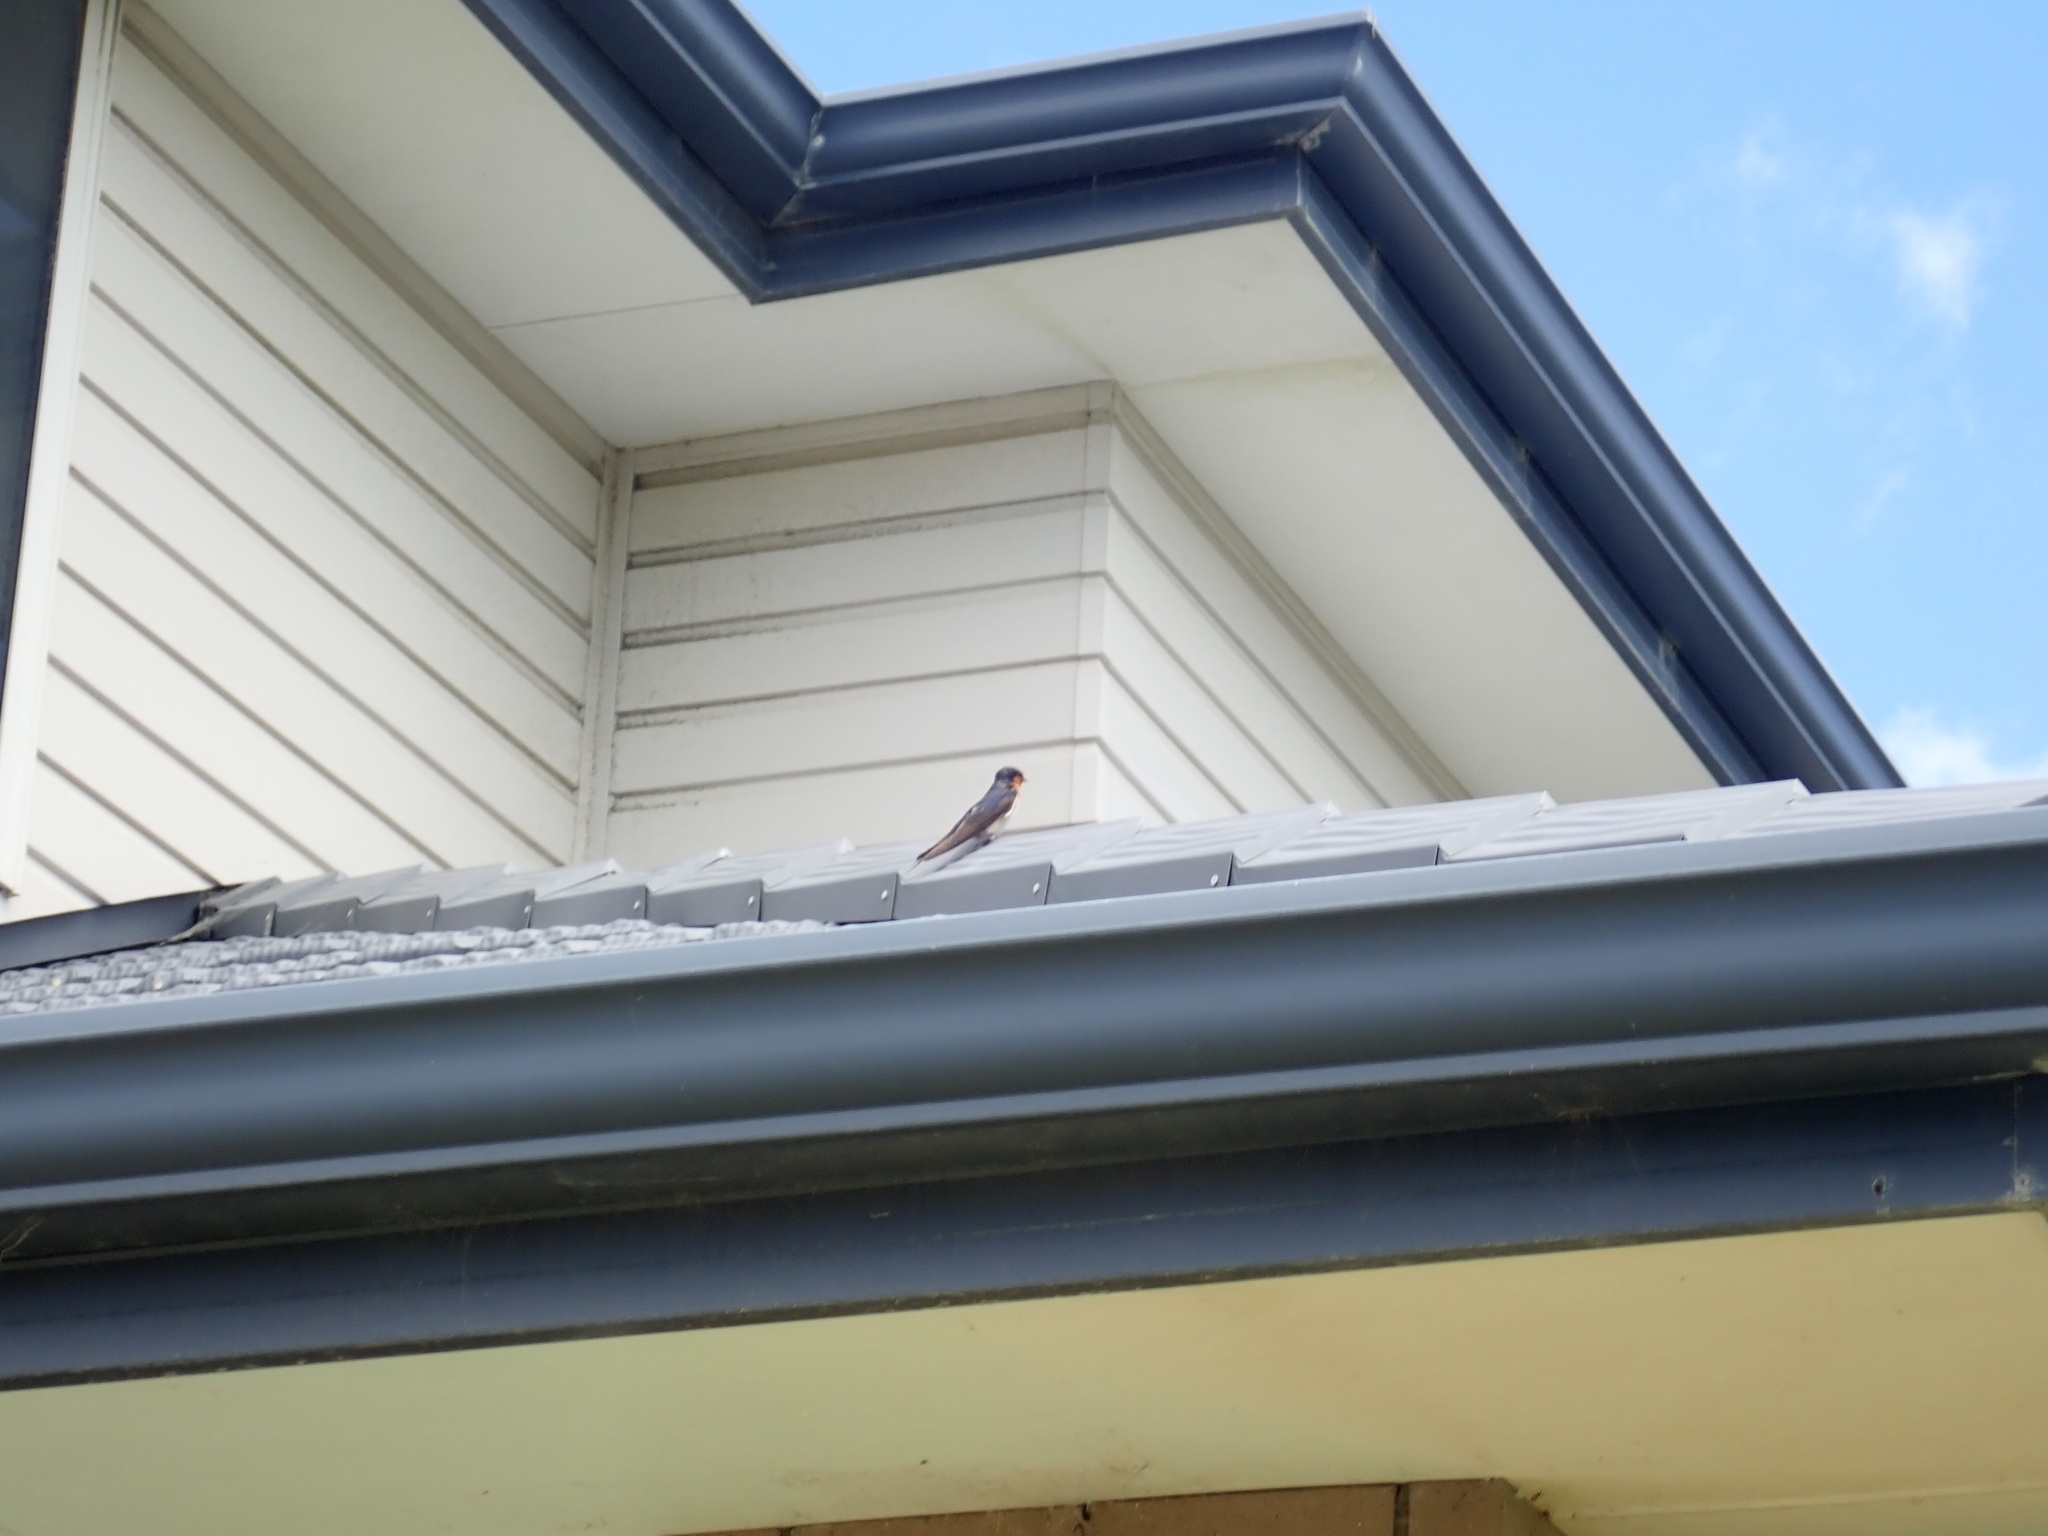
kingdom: Animalia
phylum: Chordata
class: Aves
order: Passeriformes
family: Hirundinidae
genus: Hirundo
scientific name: Hirundo neoxena
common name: Welcome swallow
